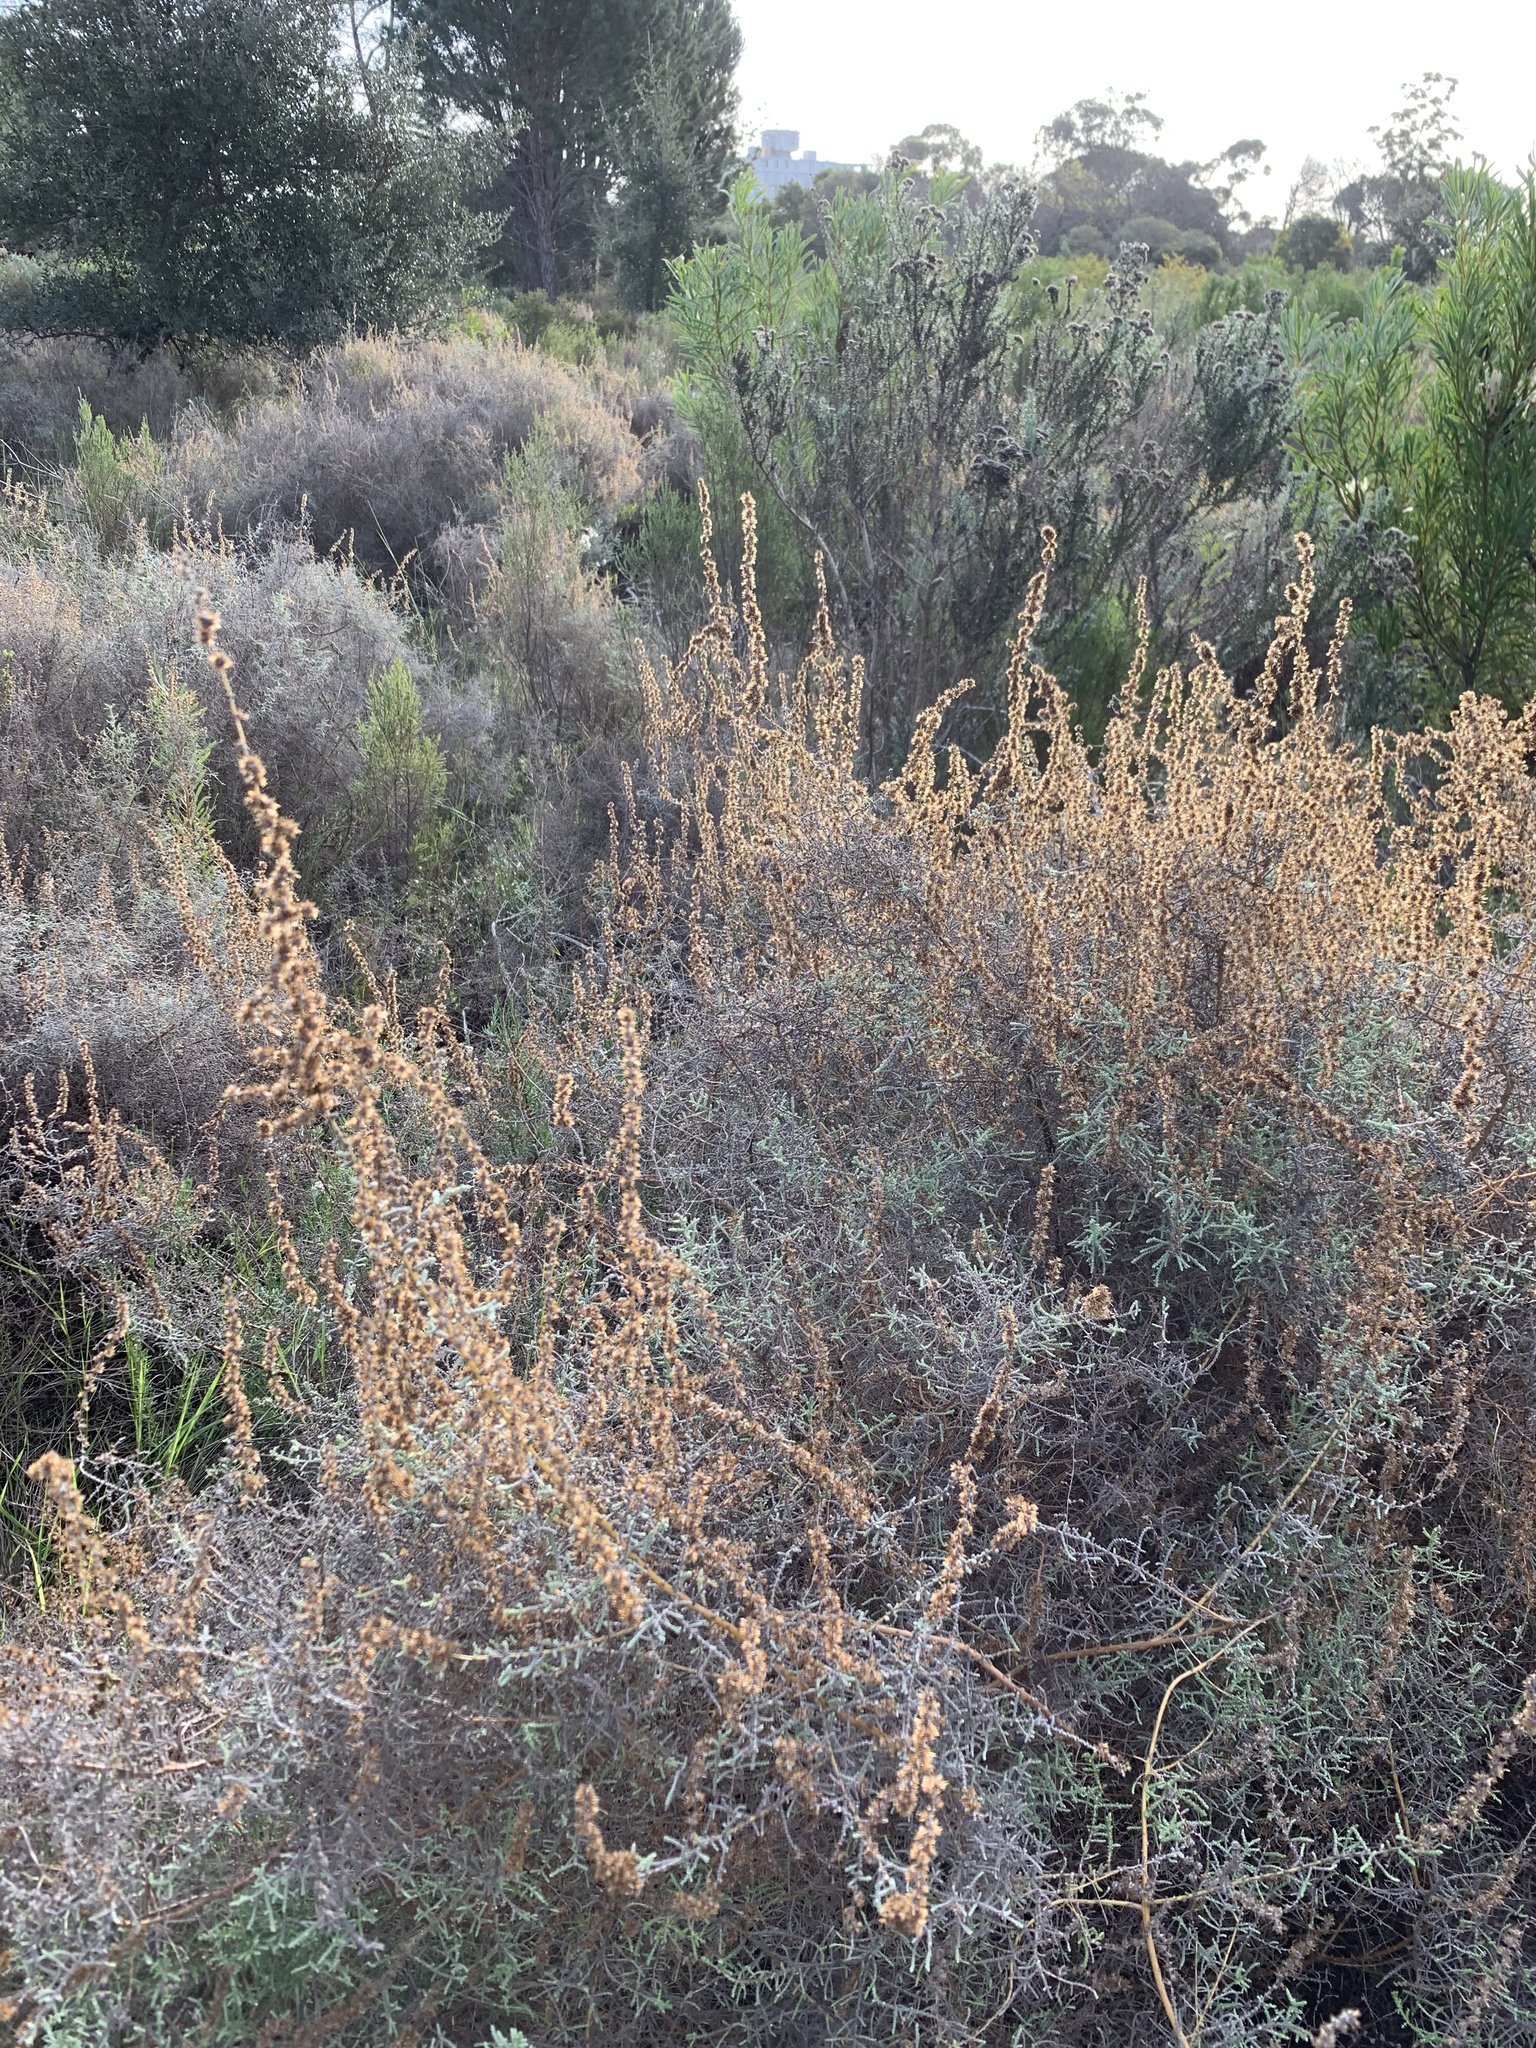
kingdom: Plantae
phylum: Tracheophyta
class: Magnoliopsida
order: Asterales
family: Asteraceae
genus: Seriphium
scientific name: Seriphium plumosum
